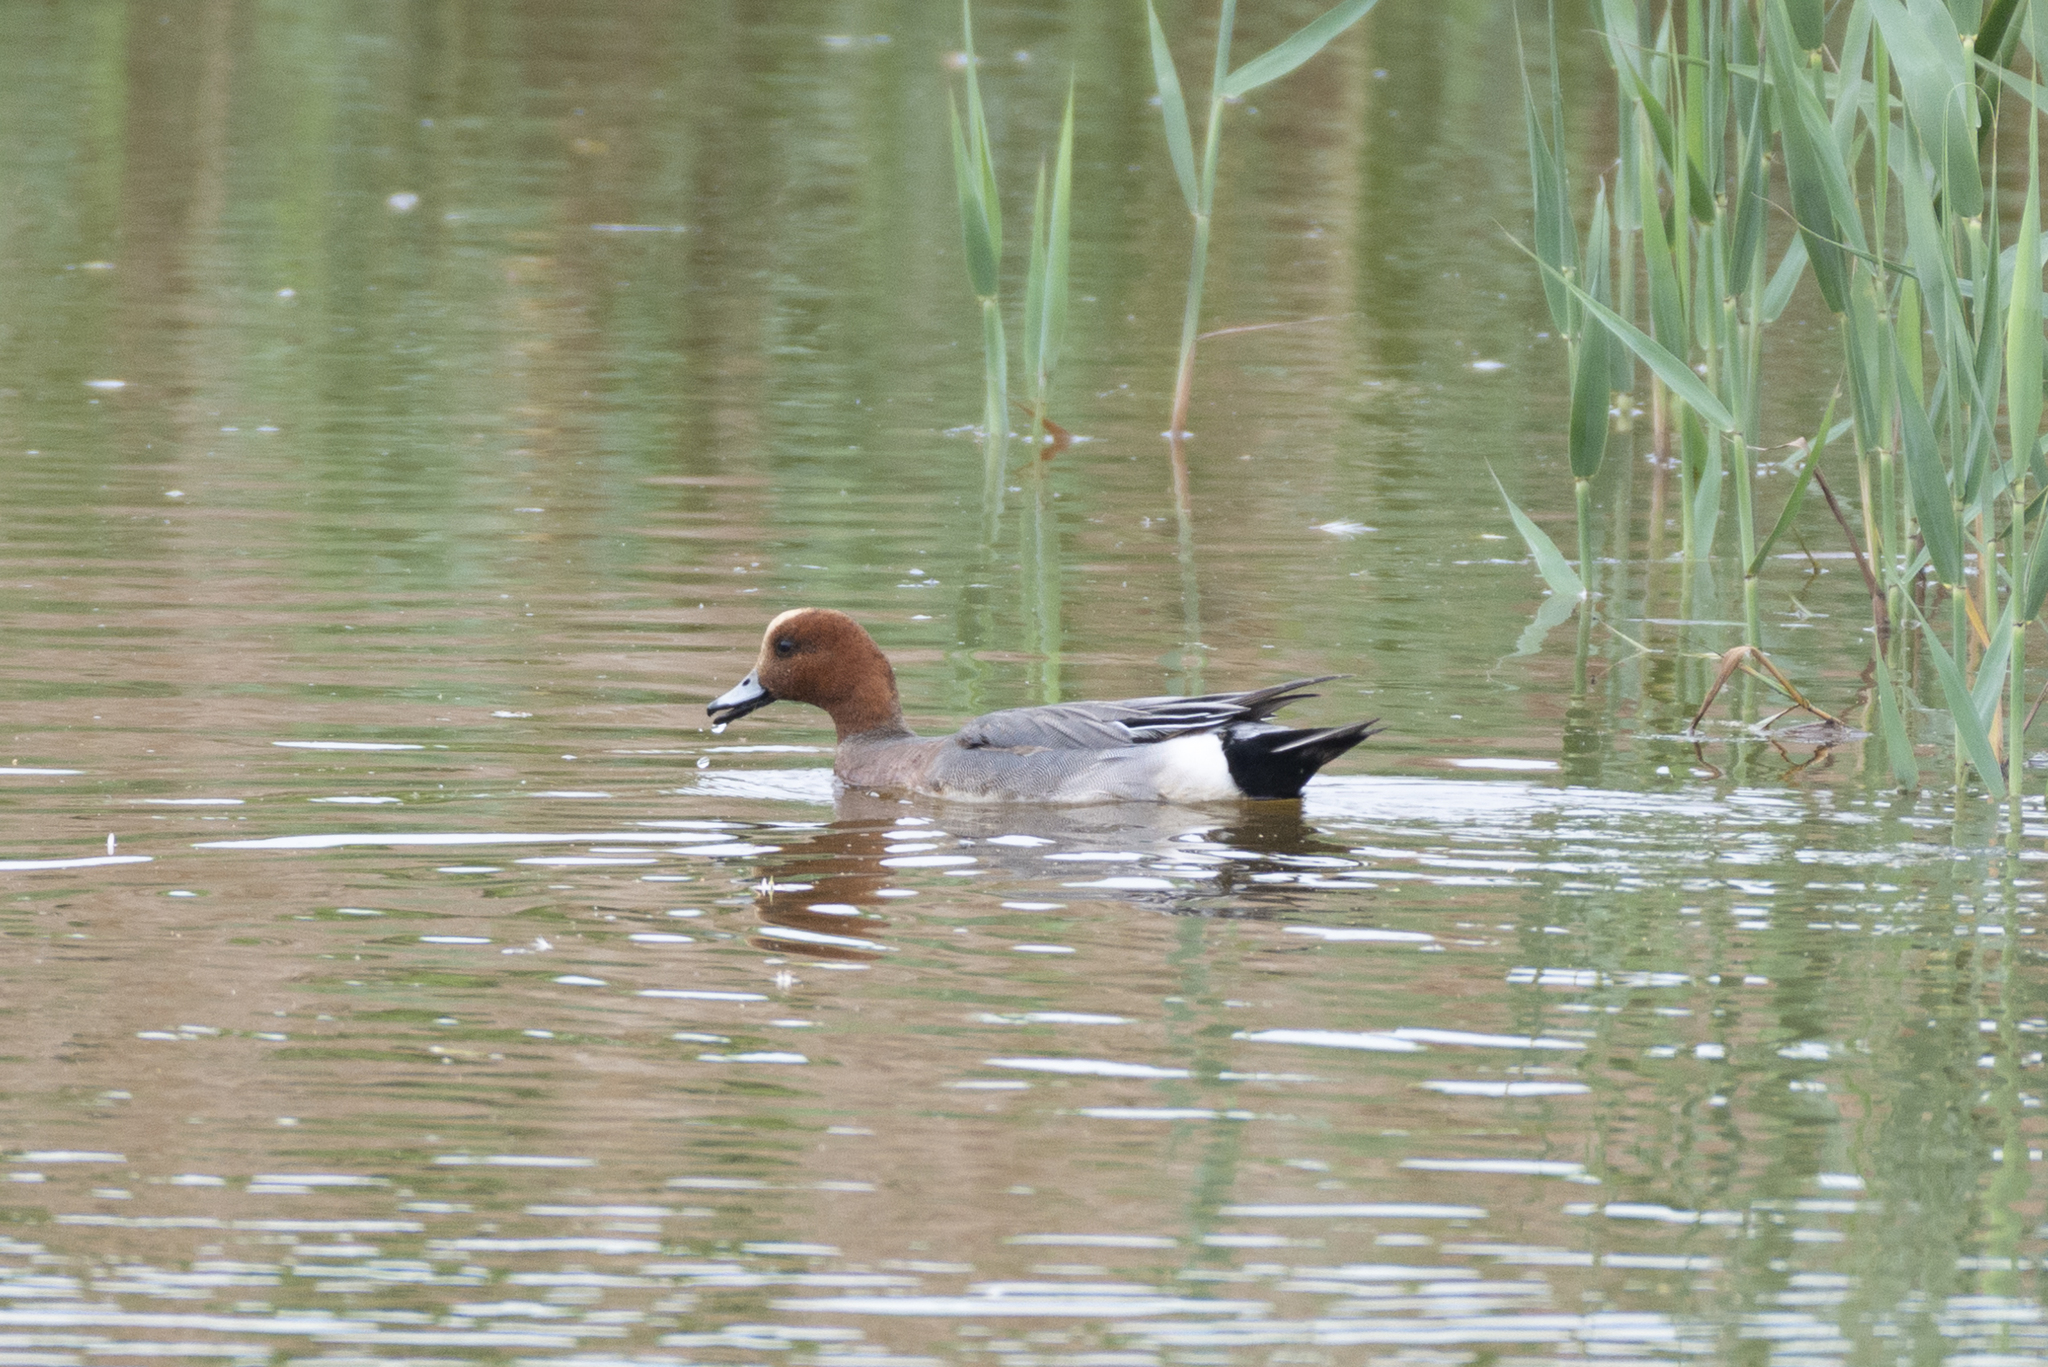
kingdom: Animalia
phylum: Chordata
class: Aves
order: Anseriformes
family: Anatidae
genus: Mareca
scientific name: Mareca penelope
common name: Eurasian wigeon
